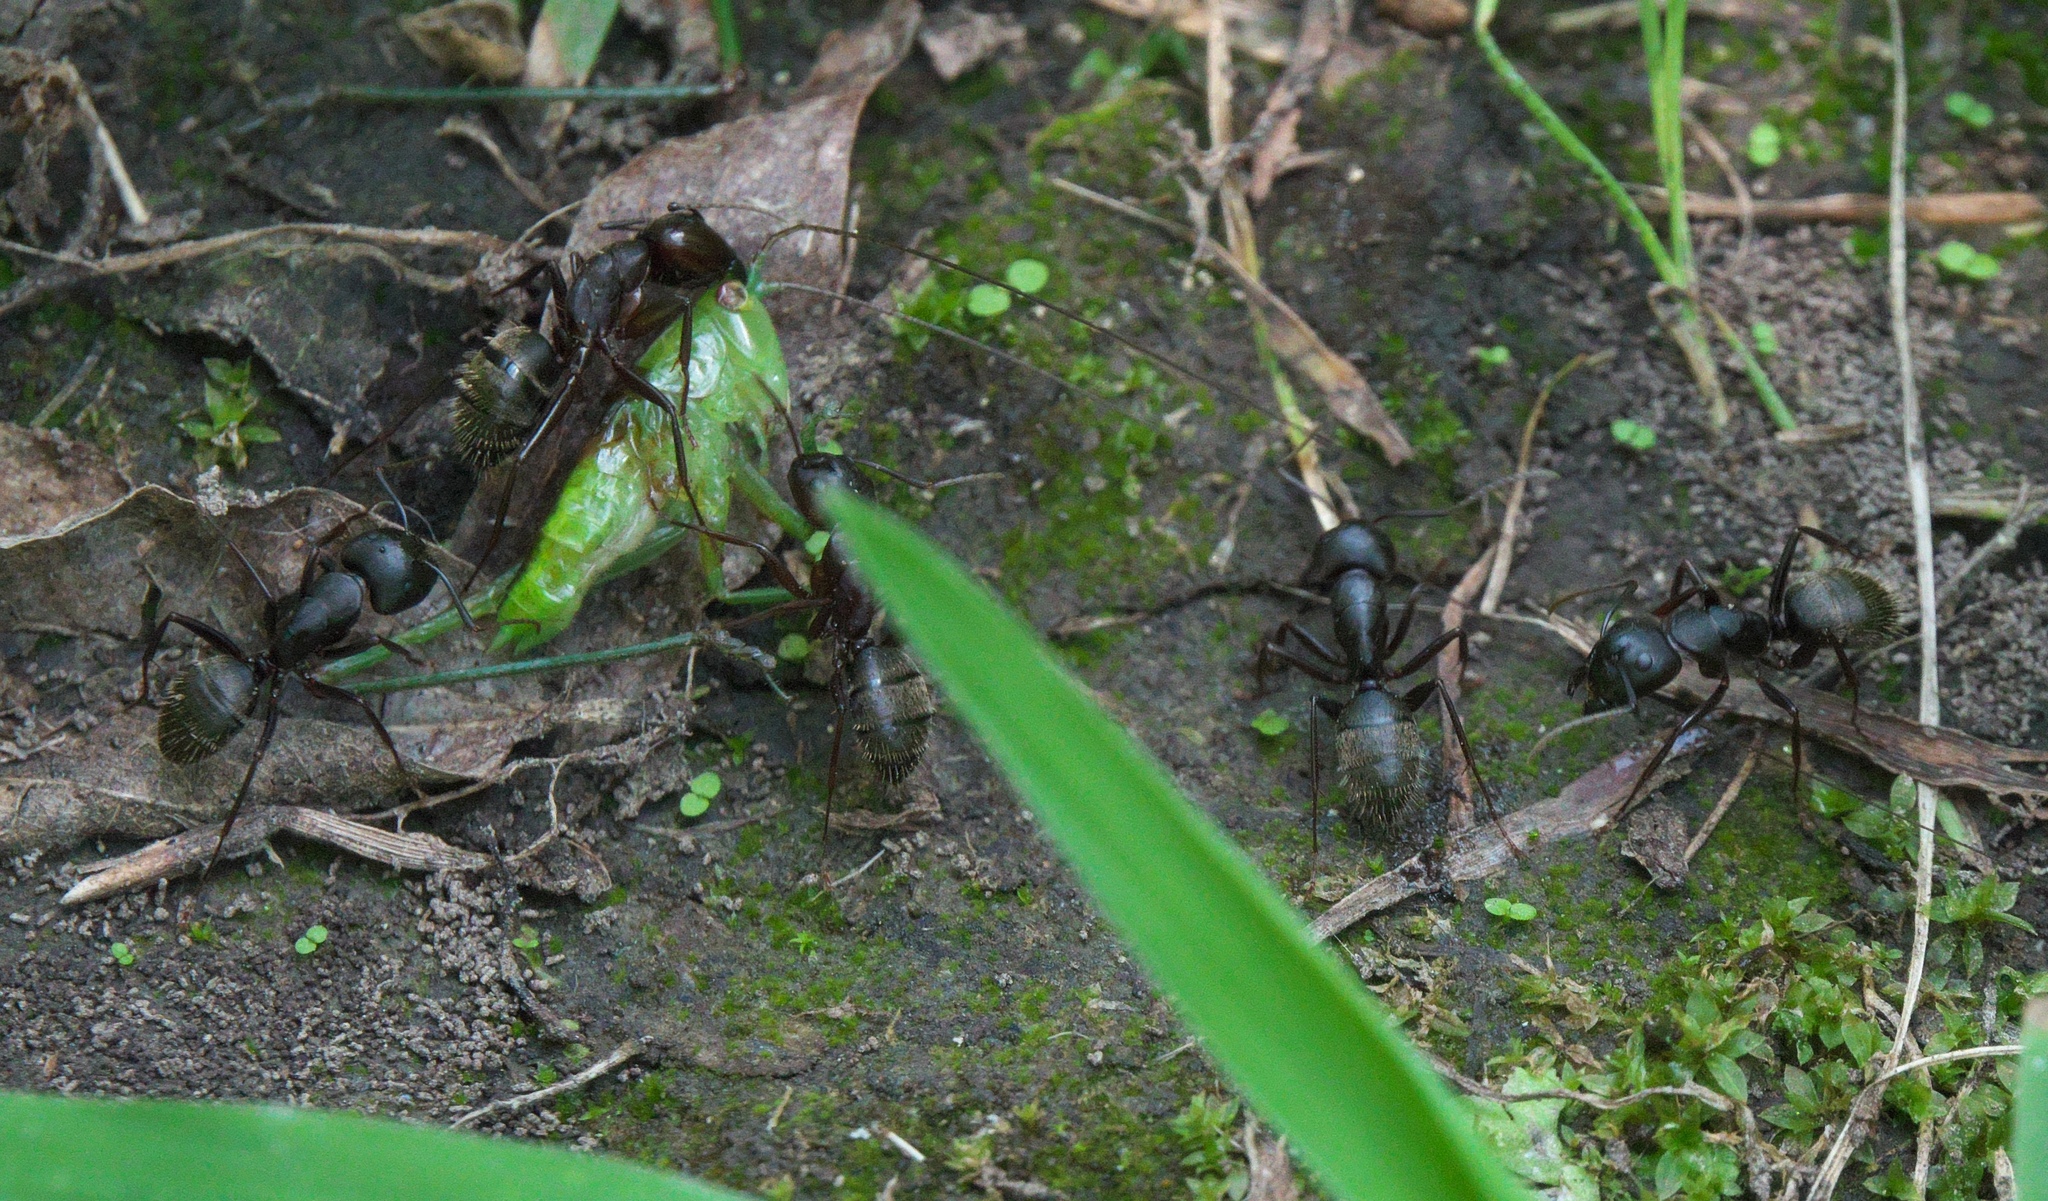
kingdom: Animalia
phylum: Arthropoda
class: Insecta
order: Hymenoptera
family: Formicidae
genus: Camponotus
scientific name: Camponotus pennsylvanicus
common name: Black carpenter ant
